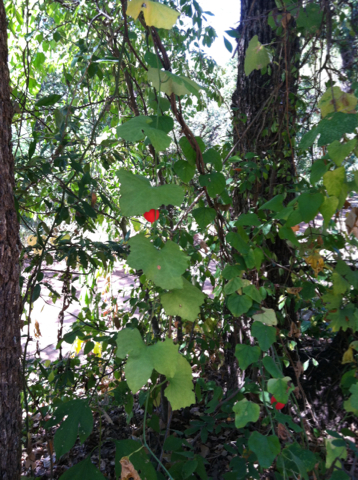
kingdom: Plantae
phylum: Tracheophyta
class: Magnoliopsida
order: Cucurbitales
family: Cucurbitaceae
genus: Ibervillea
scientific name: Ibervillea lindheimeri
